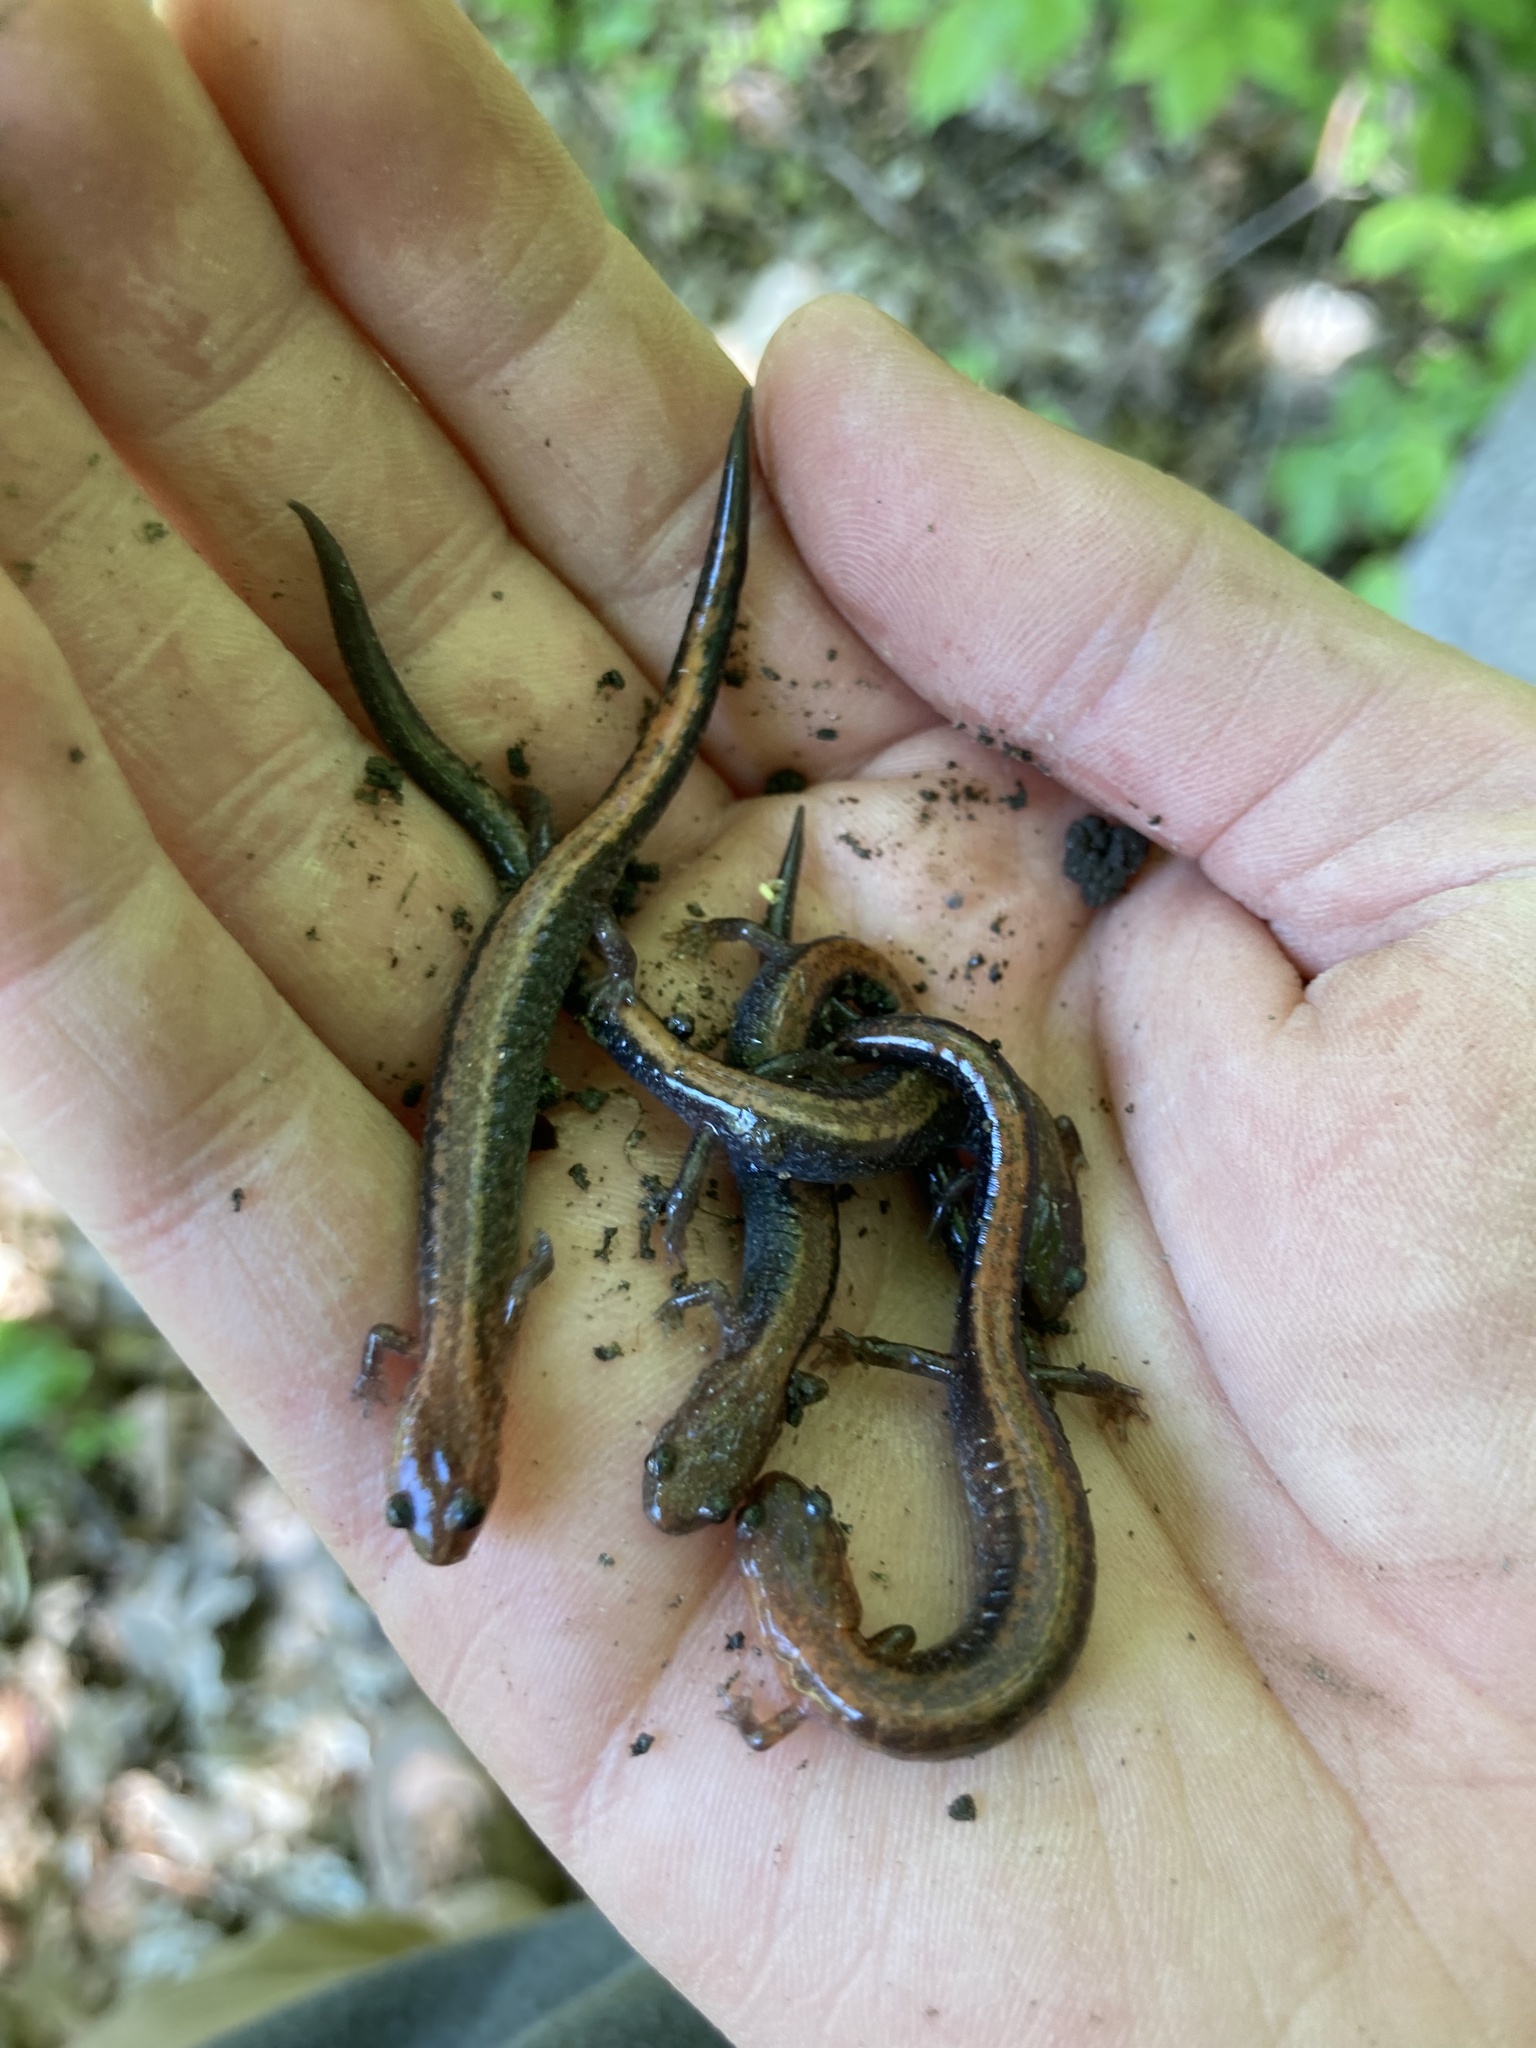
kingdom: Animalia
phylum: Chordata
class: Amphibia
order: Caudata
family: Plethodontidae
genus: Plethodon
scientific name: Plethodon cinereus
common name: Redback salamander
